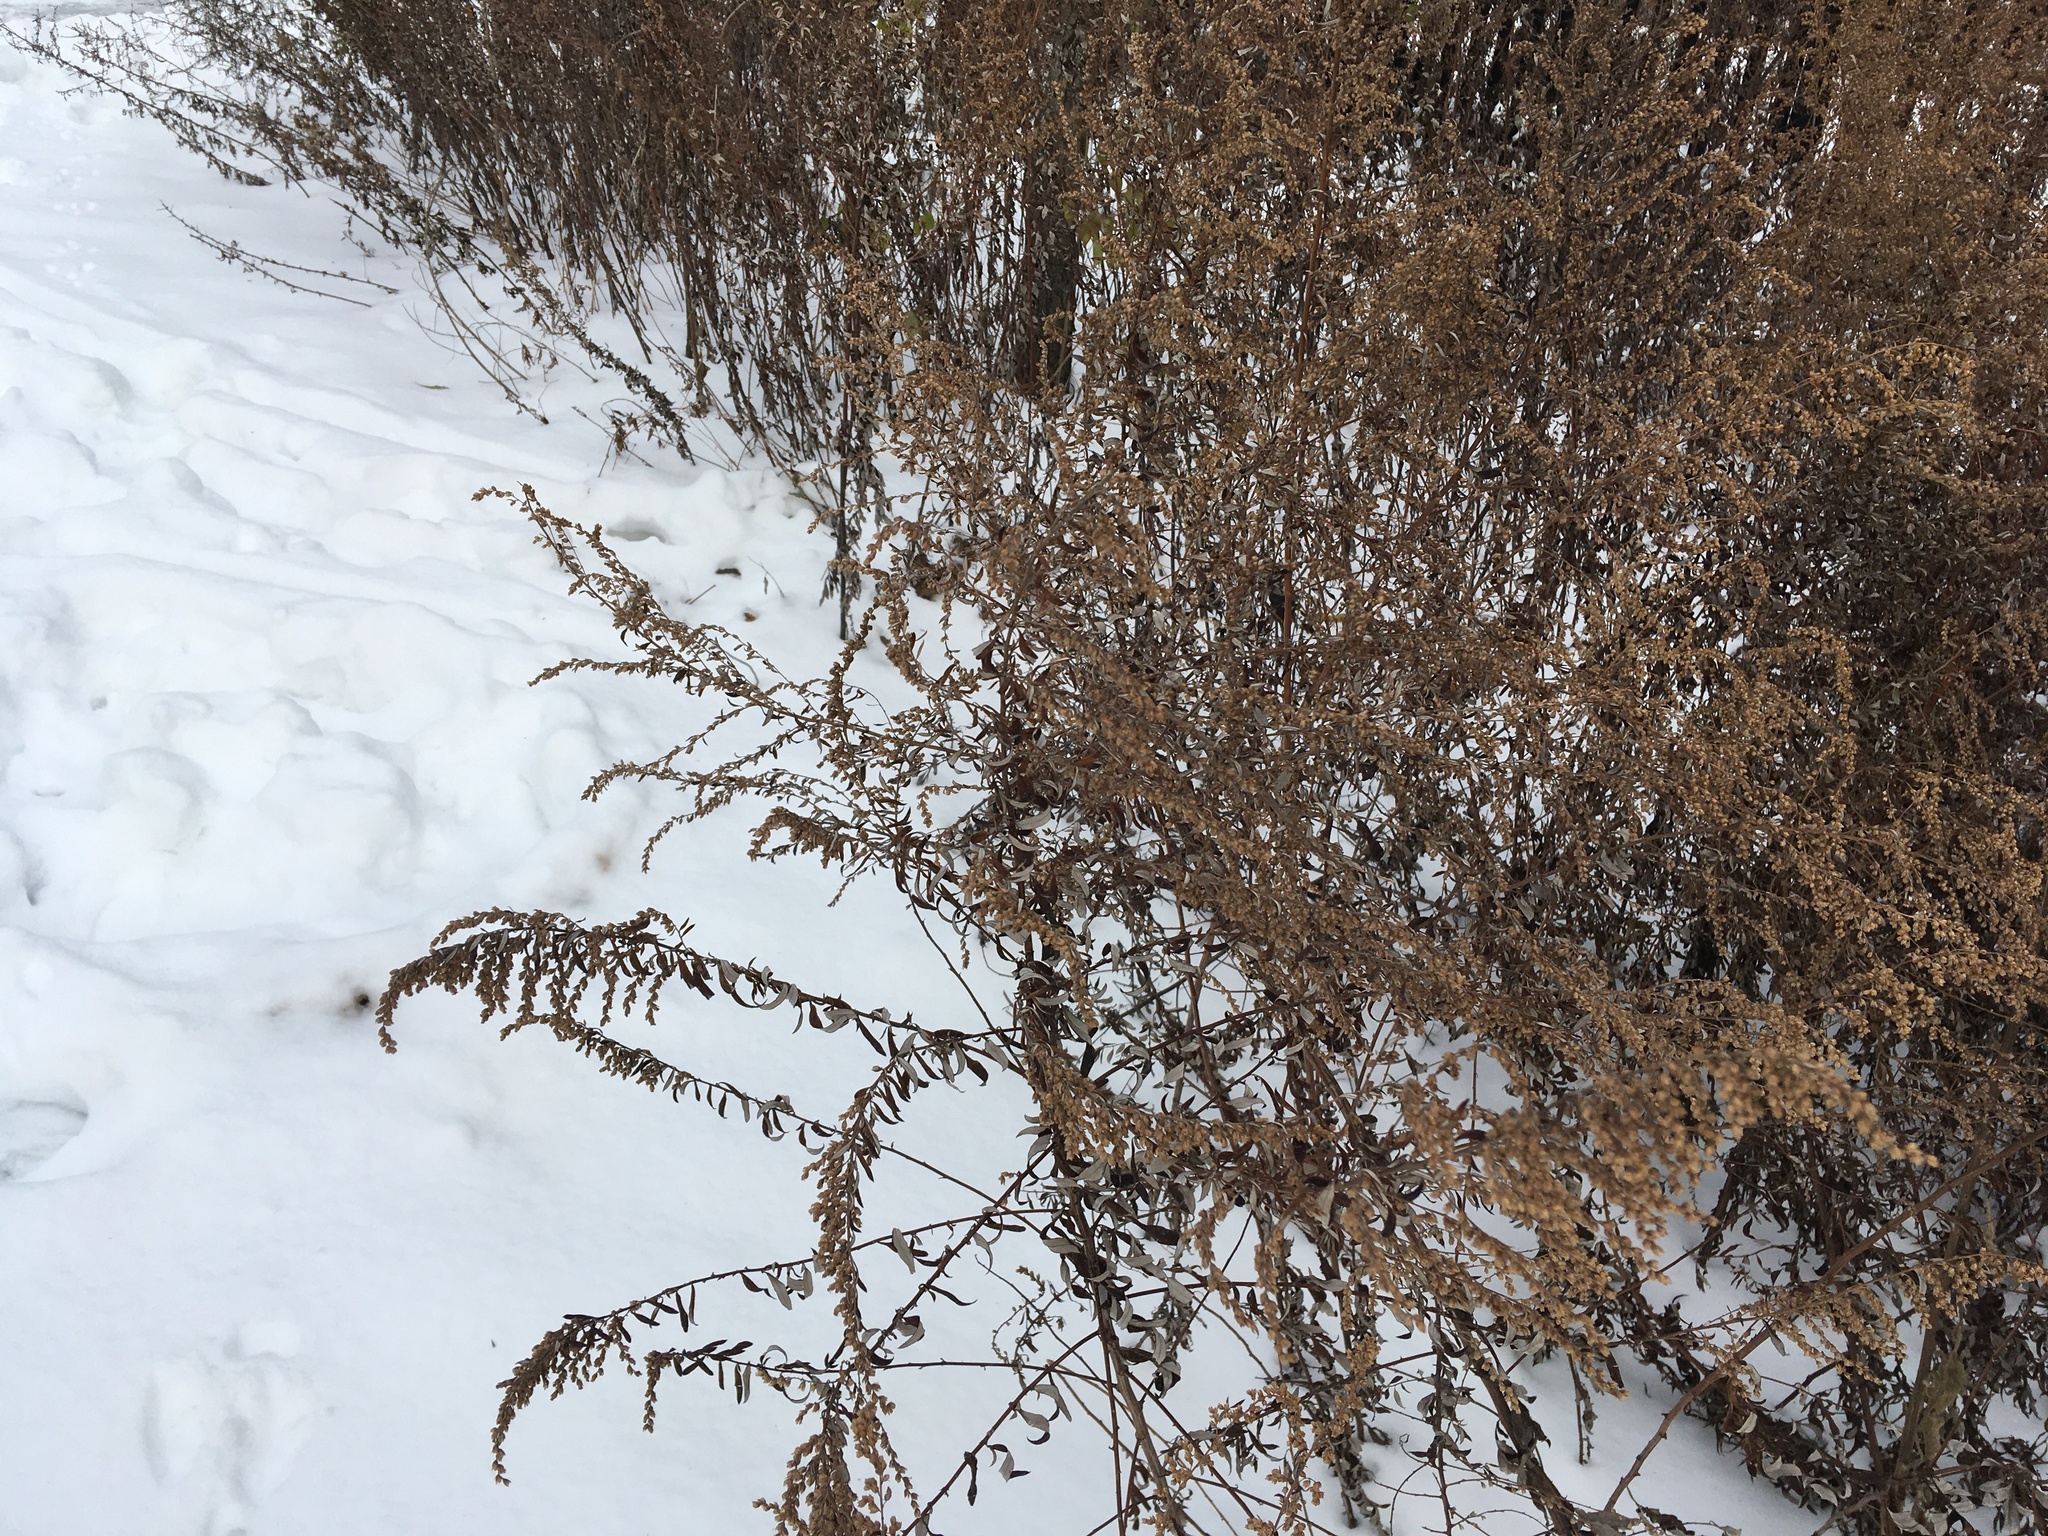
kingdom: Plantae
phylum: Tracheophyta
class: Magnoliopsida
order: Asterales
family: Asteraceae
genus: Artemisia
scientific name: Artemisia vulgaris
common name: Mugwort
